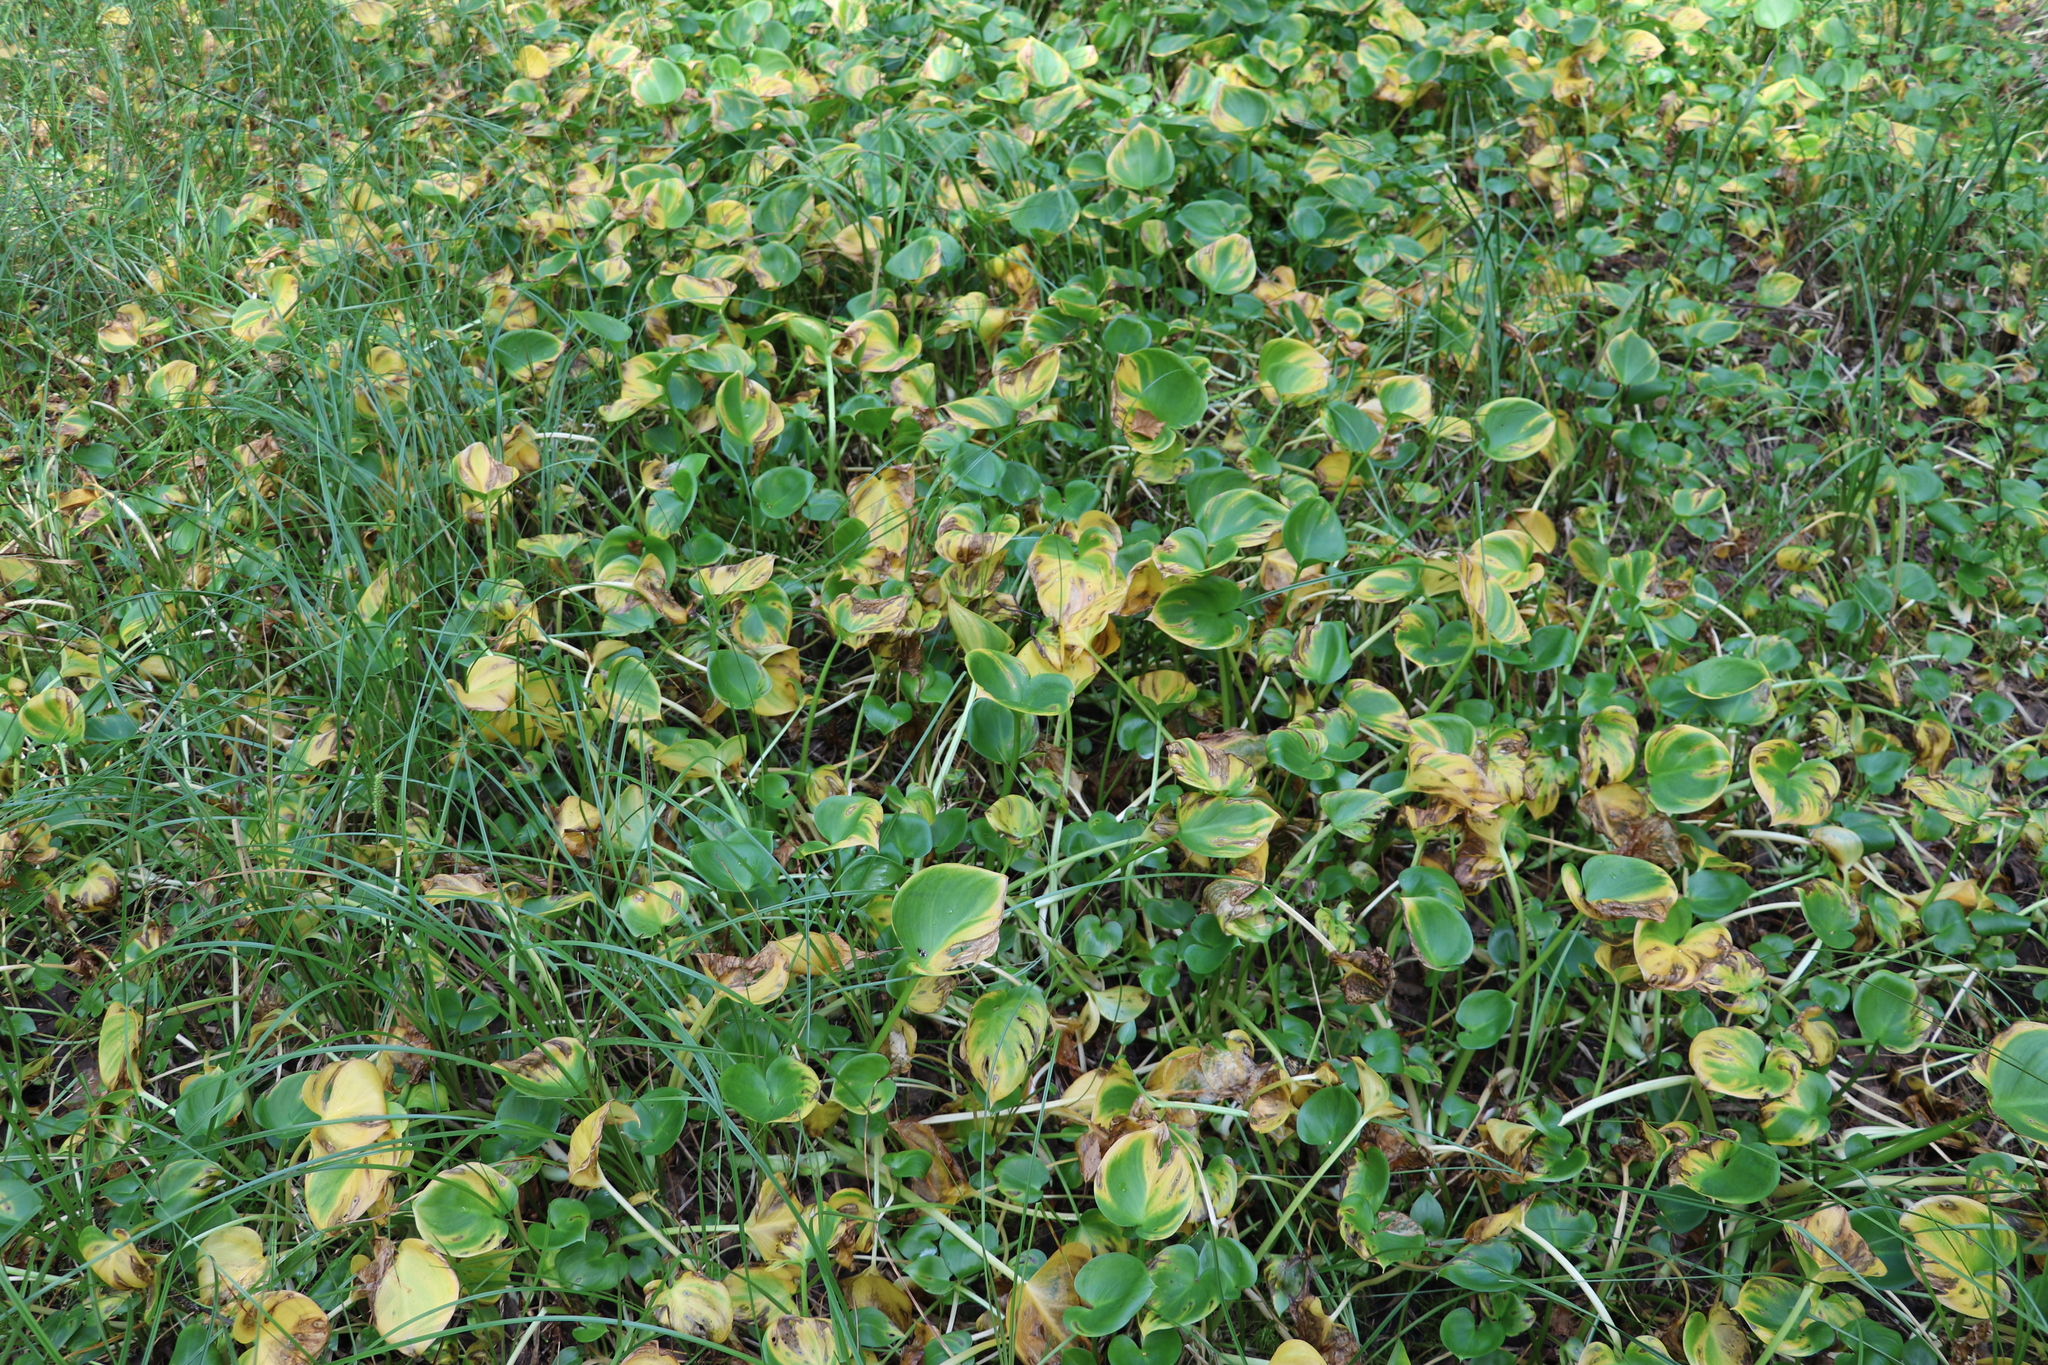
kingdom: Plantae
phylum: Tracheophyta
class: Liliopsida
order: Alismatales
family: Araceae
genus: Calla
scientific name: Calla palustris
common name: Bog arum
